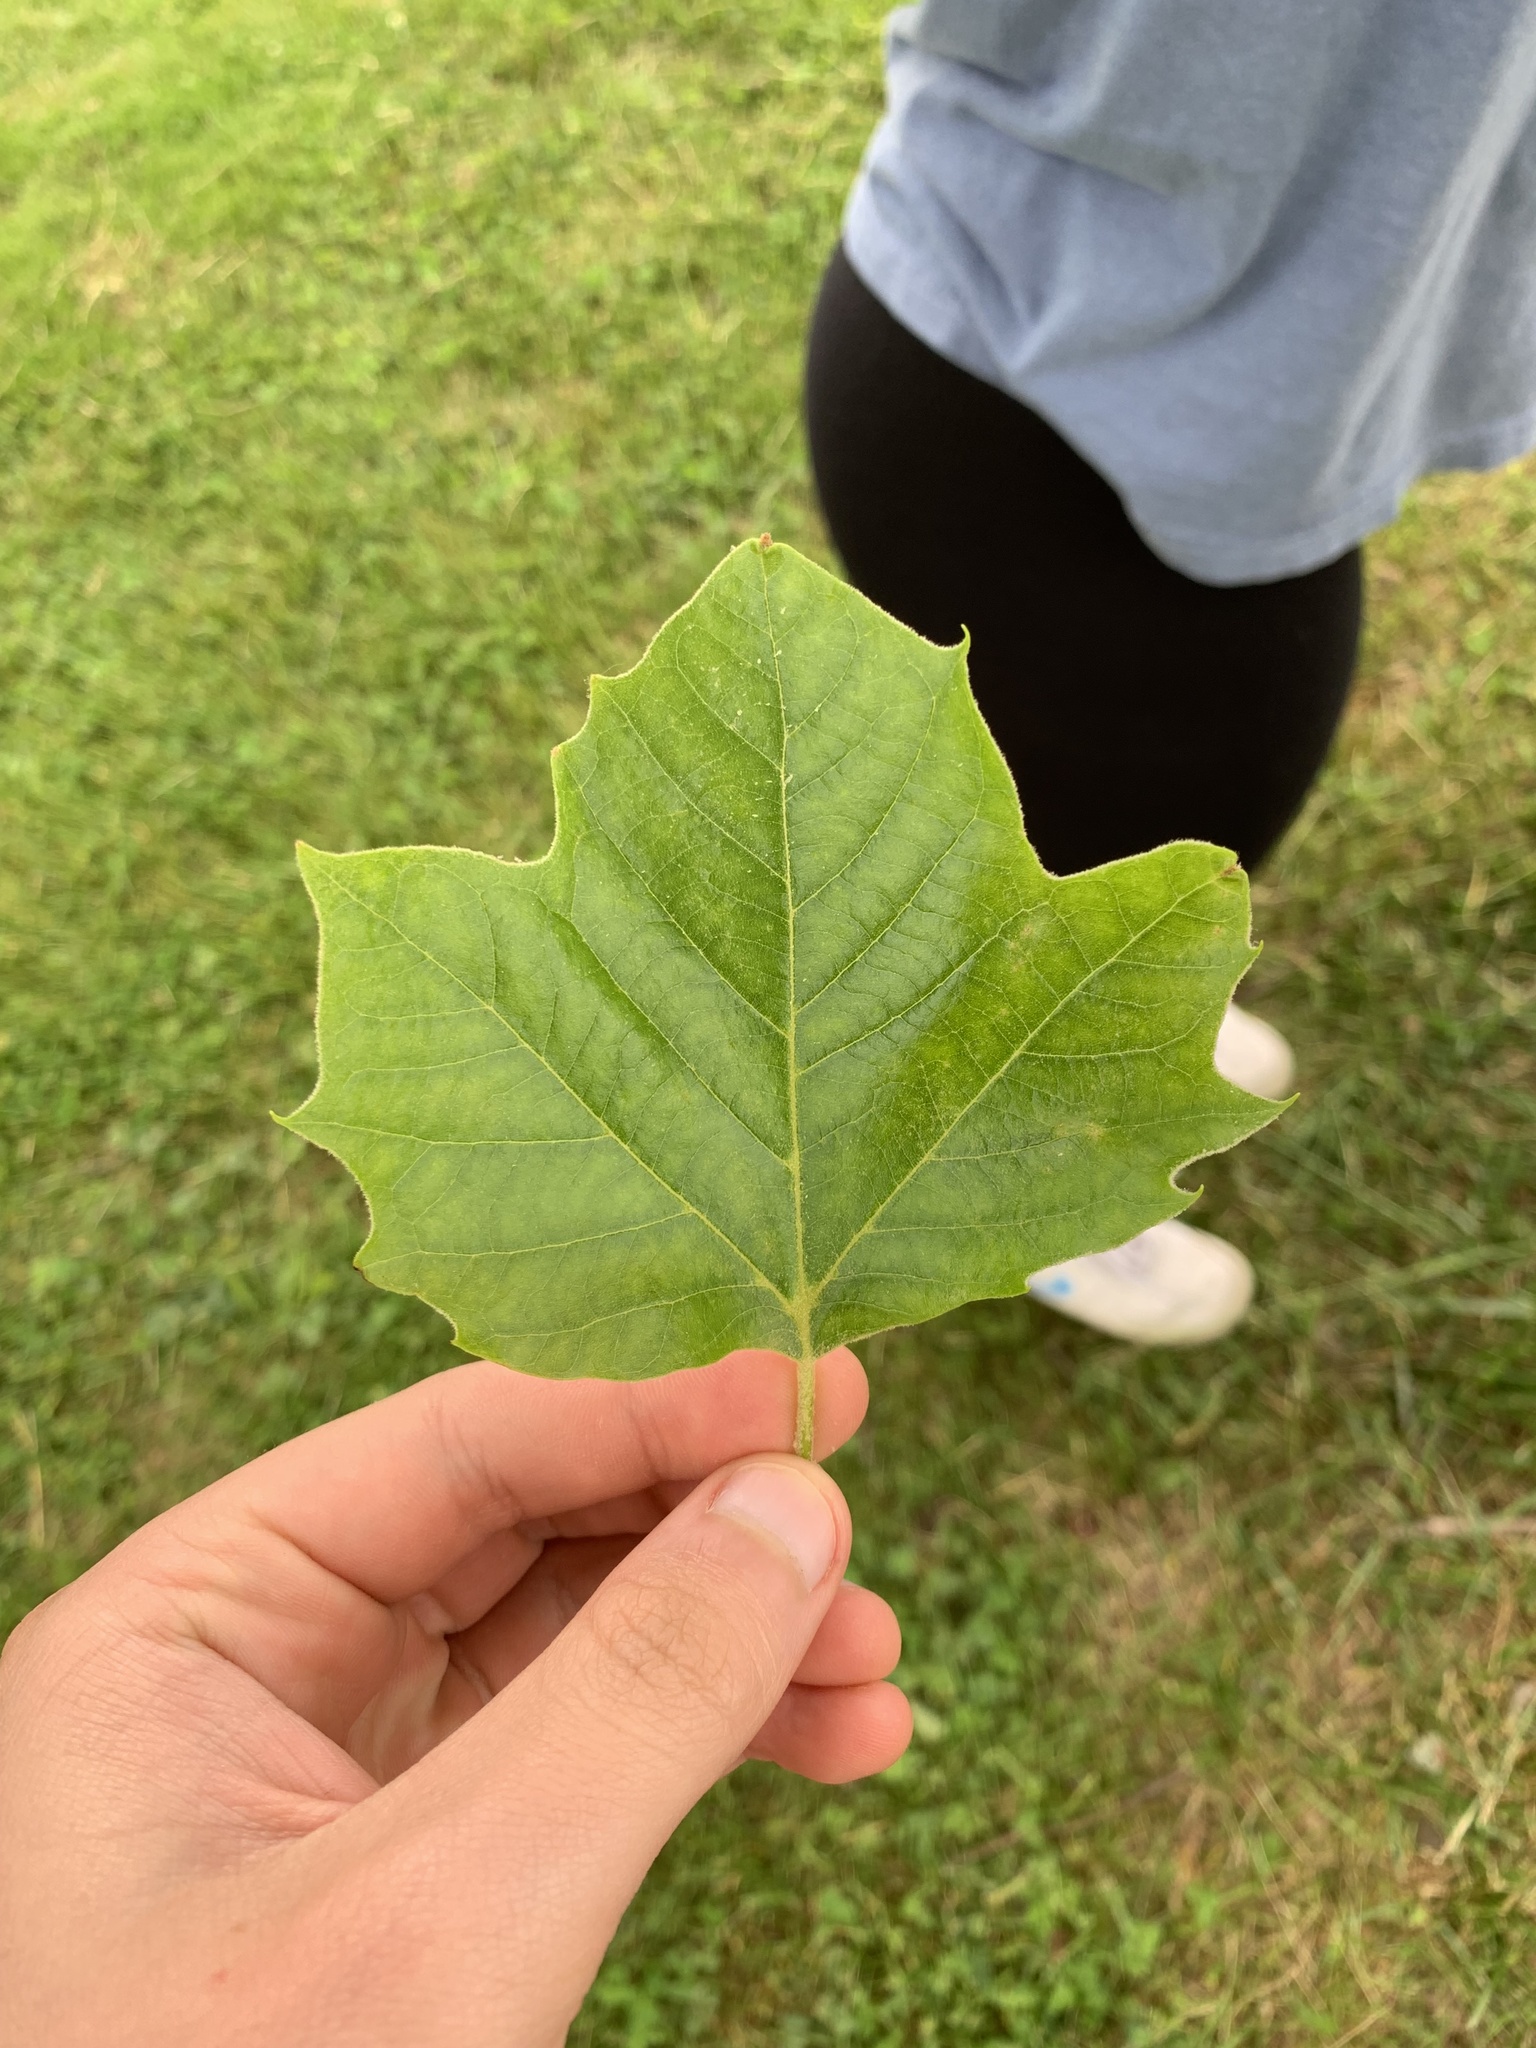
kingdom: Plantae
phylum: Tracheophyta
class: Magnoliopsida
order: Proteales
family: Platanaceae
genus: Platanus
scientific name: Platanus occidentalis
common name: American sycamore
